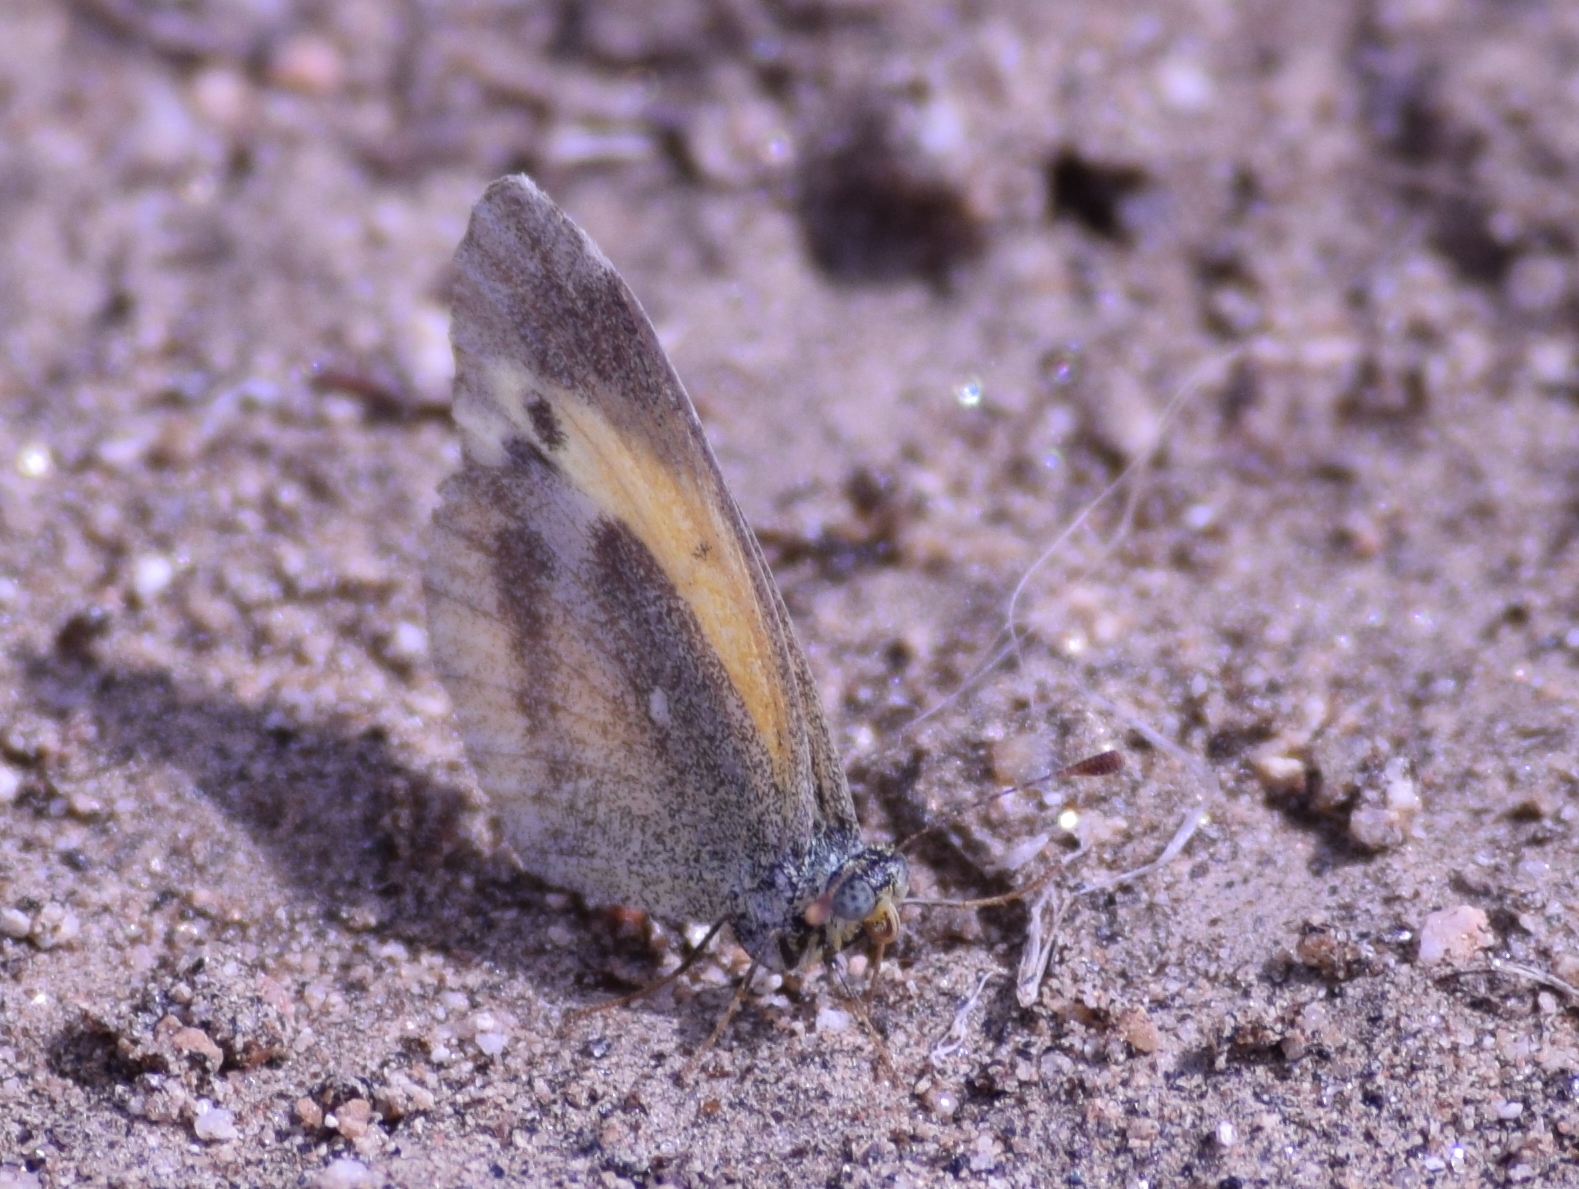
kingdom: Animalia
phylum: Arthropoda
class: Insecta
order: Lepidoptera
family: Pieridae
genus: Nathalis
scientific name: Nathalis iole
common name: Dainty sulphur
